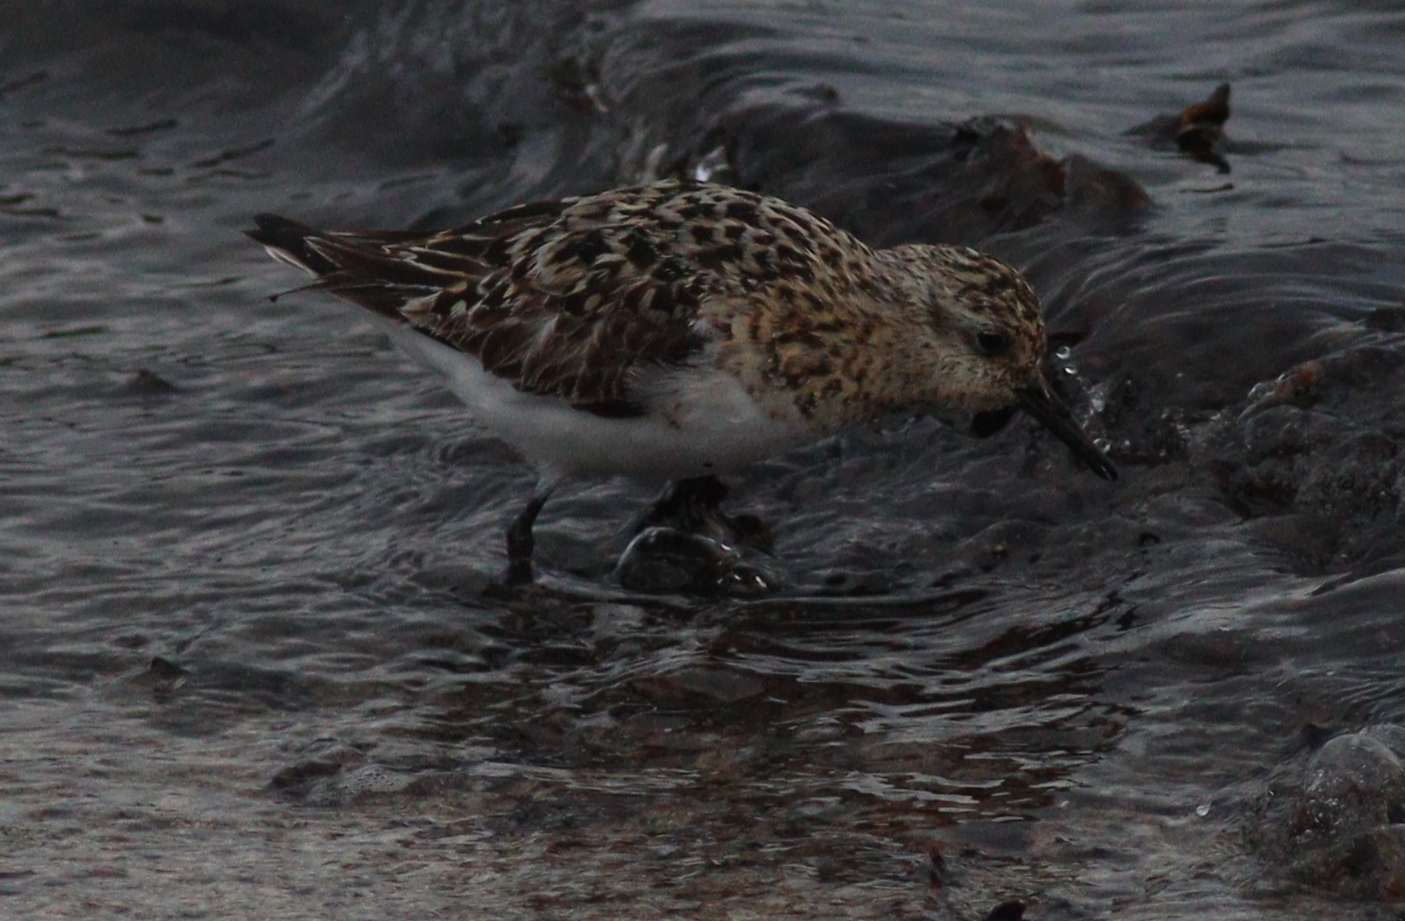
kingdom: Animalia
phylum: Chordata
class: Aves
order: Charadriiformes
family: Scolopacidae
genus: Calidris
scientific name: Calidris alba
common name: Sanderling
